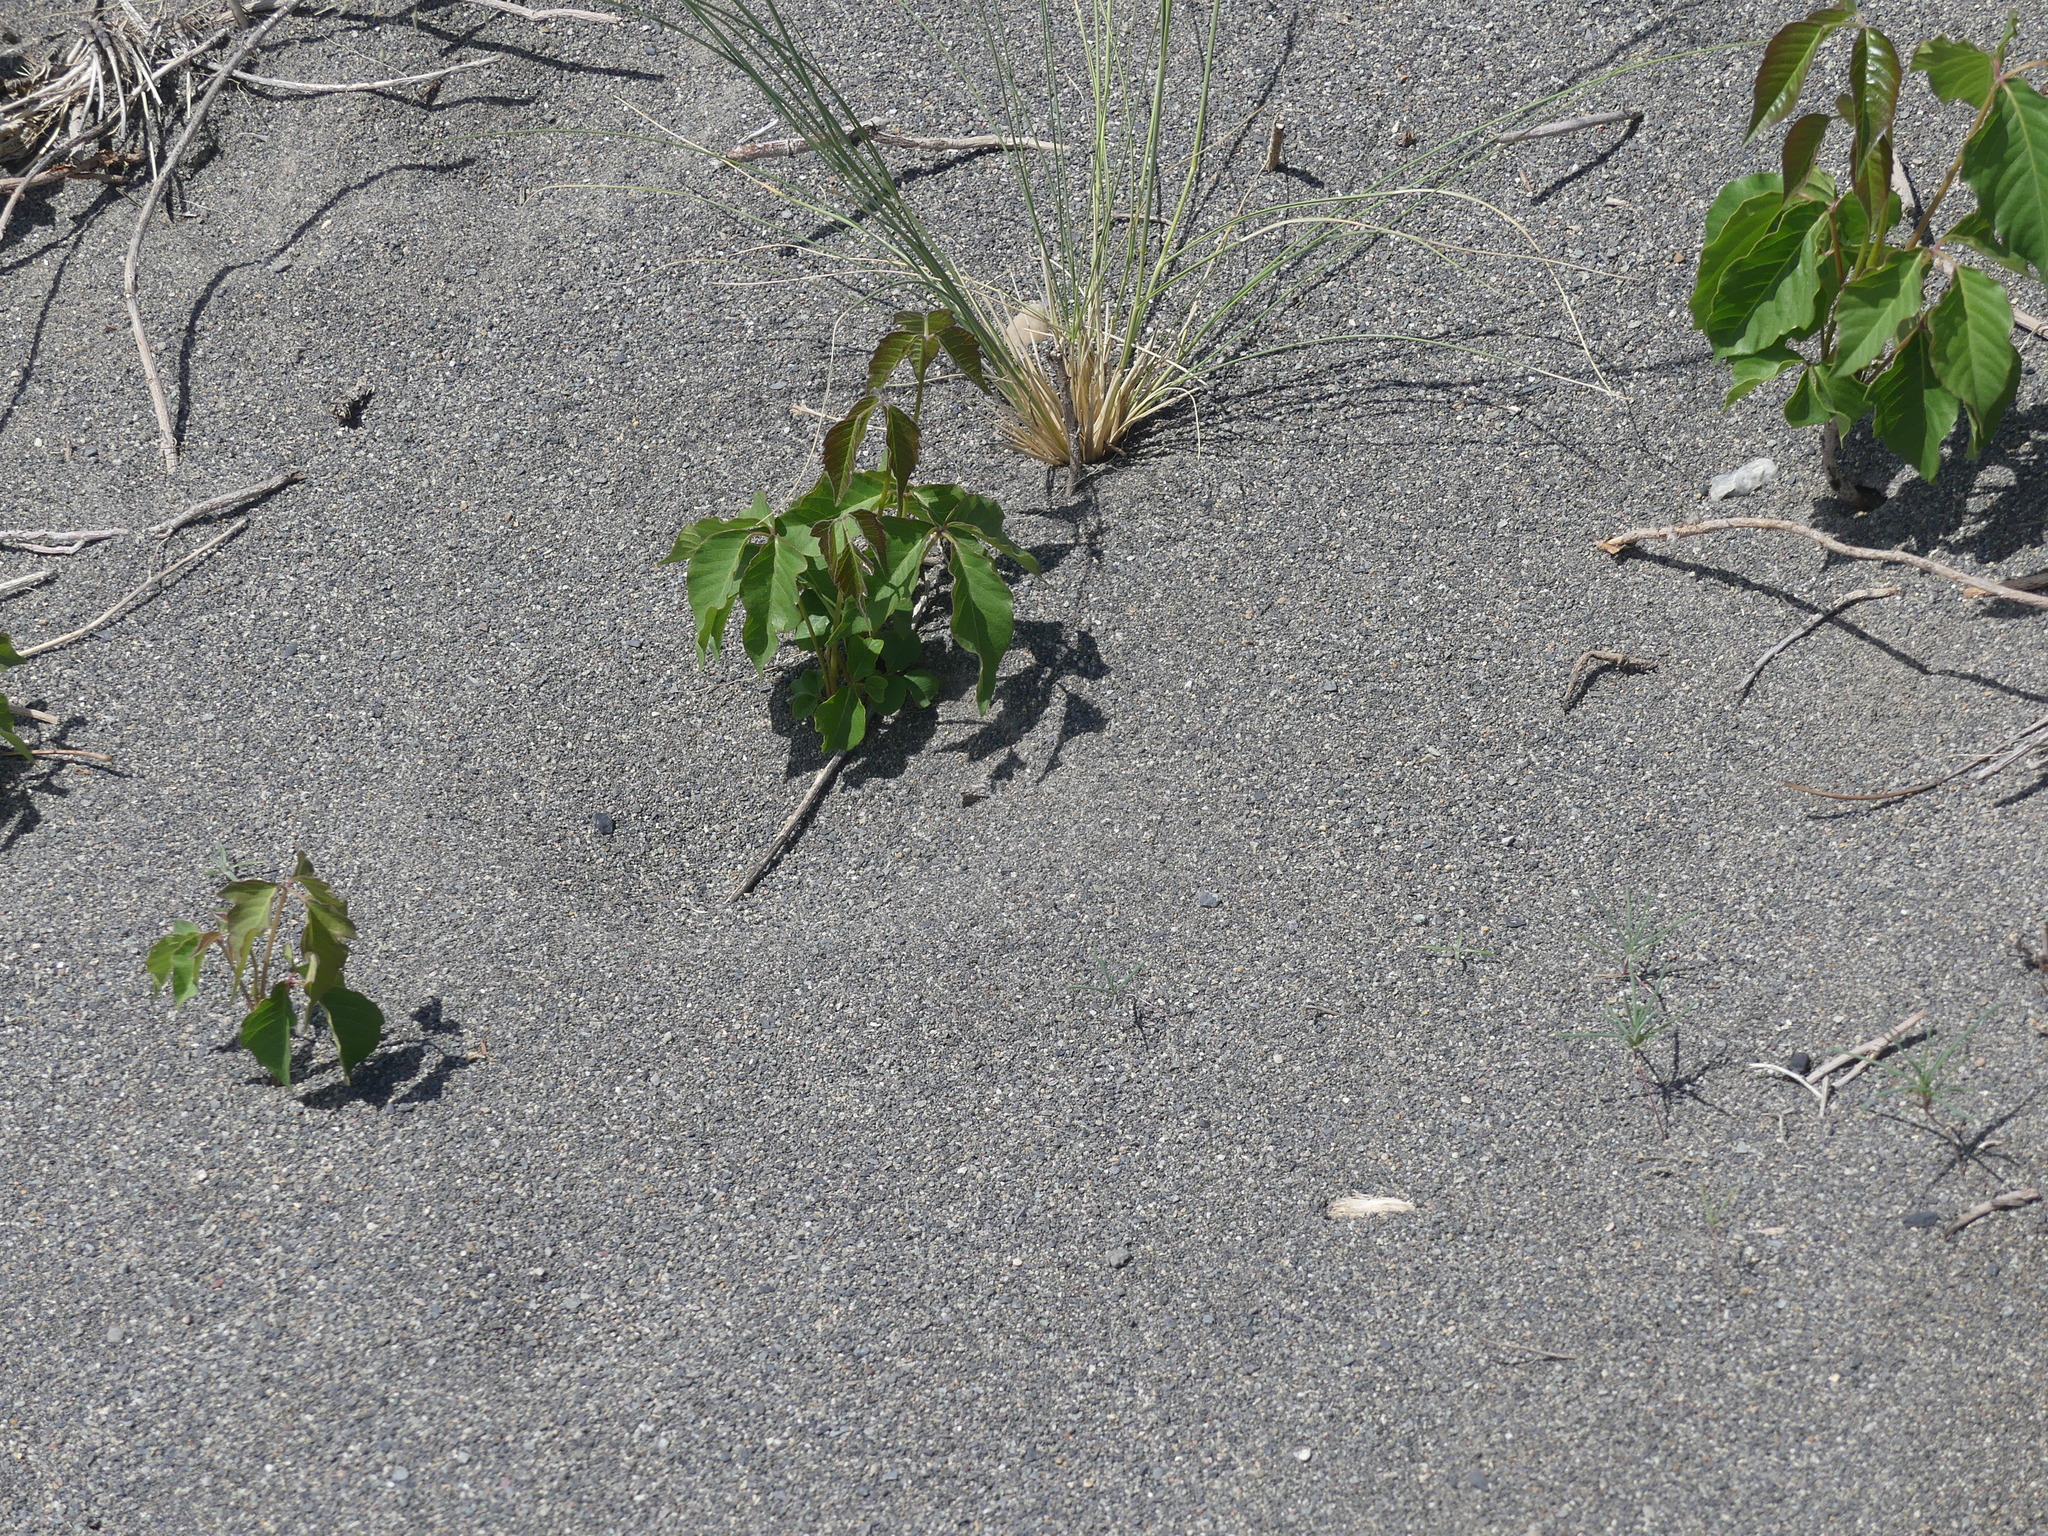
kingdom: Plantae
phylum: Tracheophyta
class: Magnoliopsida
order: Sapindales
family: Anacardiaceae
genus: Toxicodendron
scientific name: Toxicodendron rydbergii
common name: Rydberg's poison-ivy
